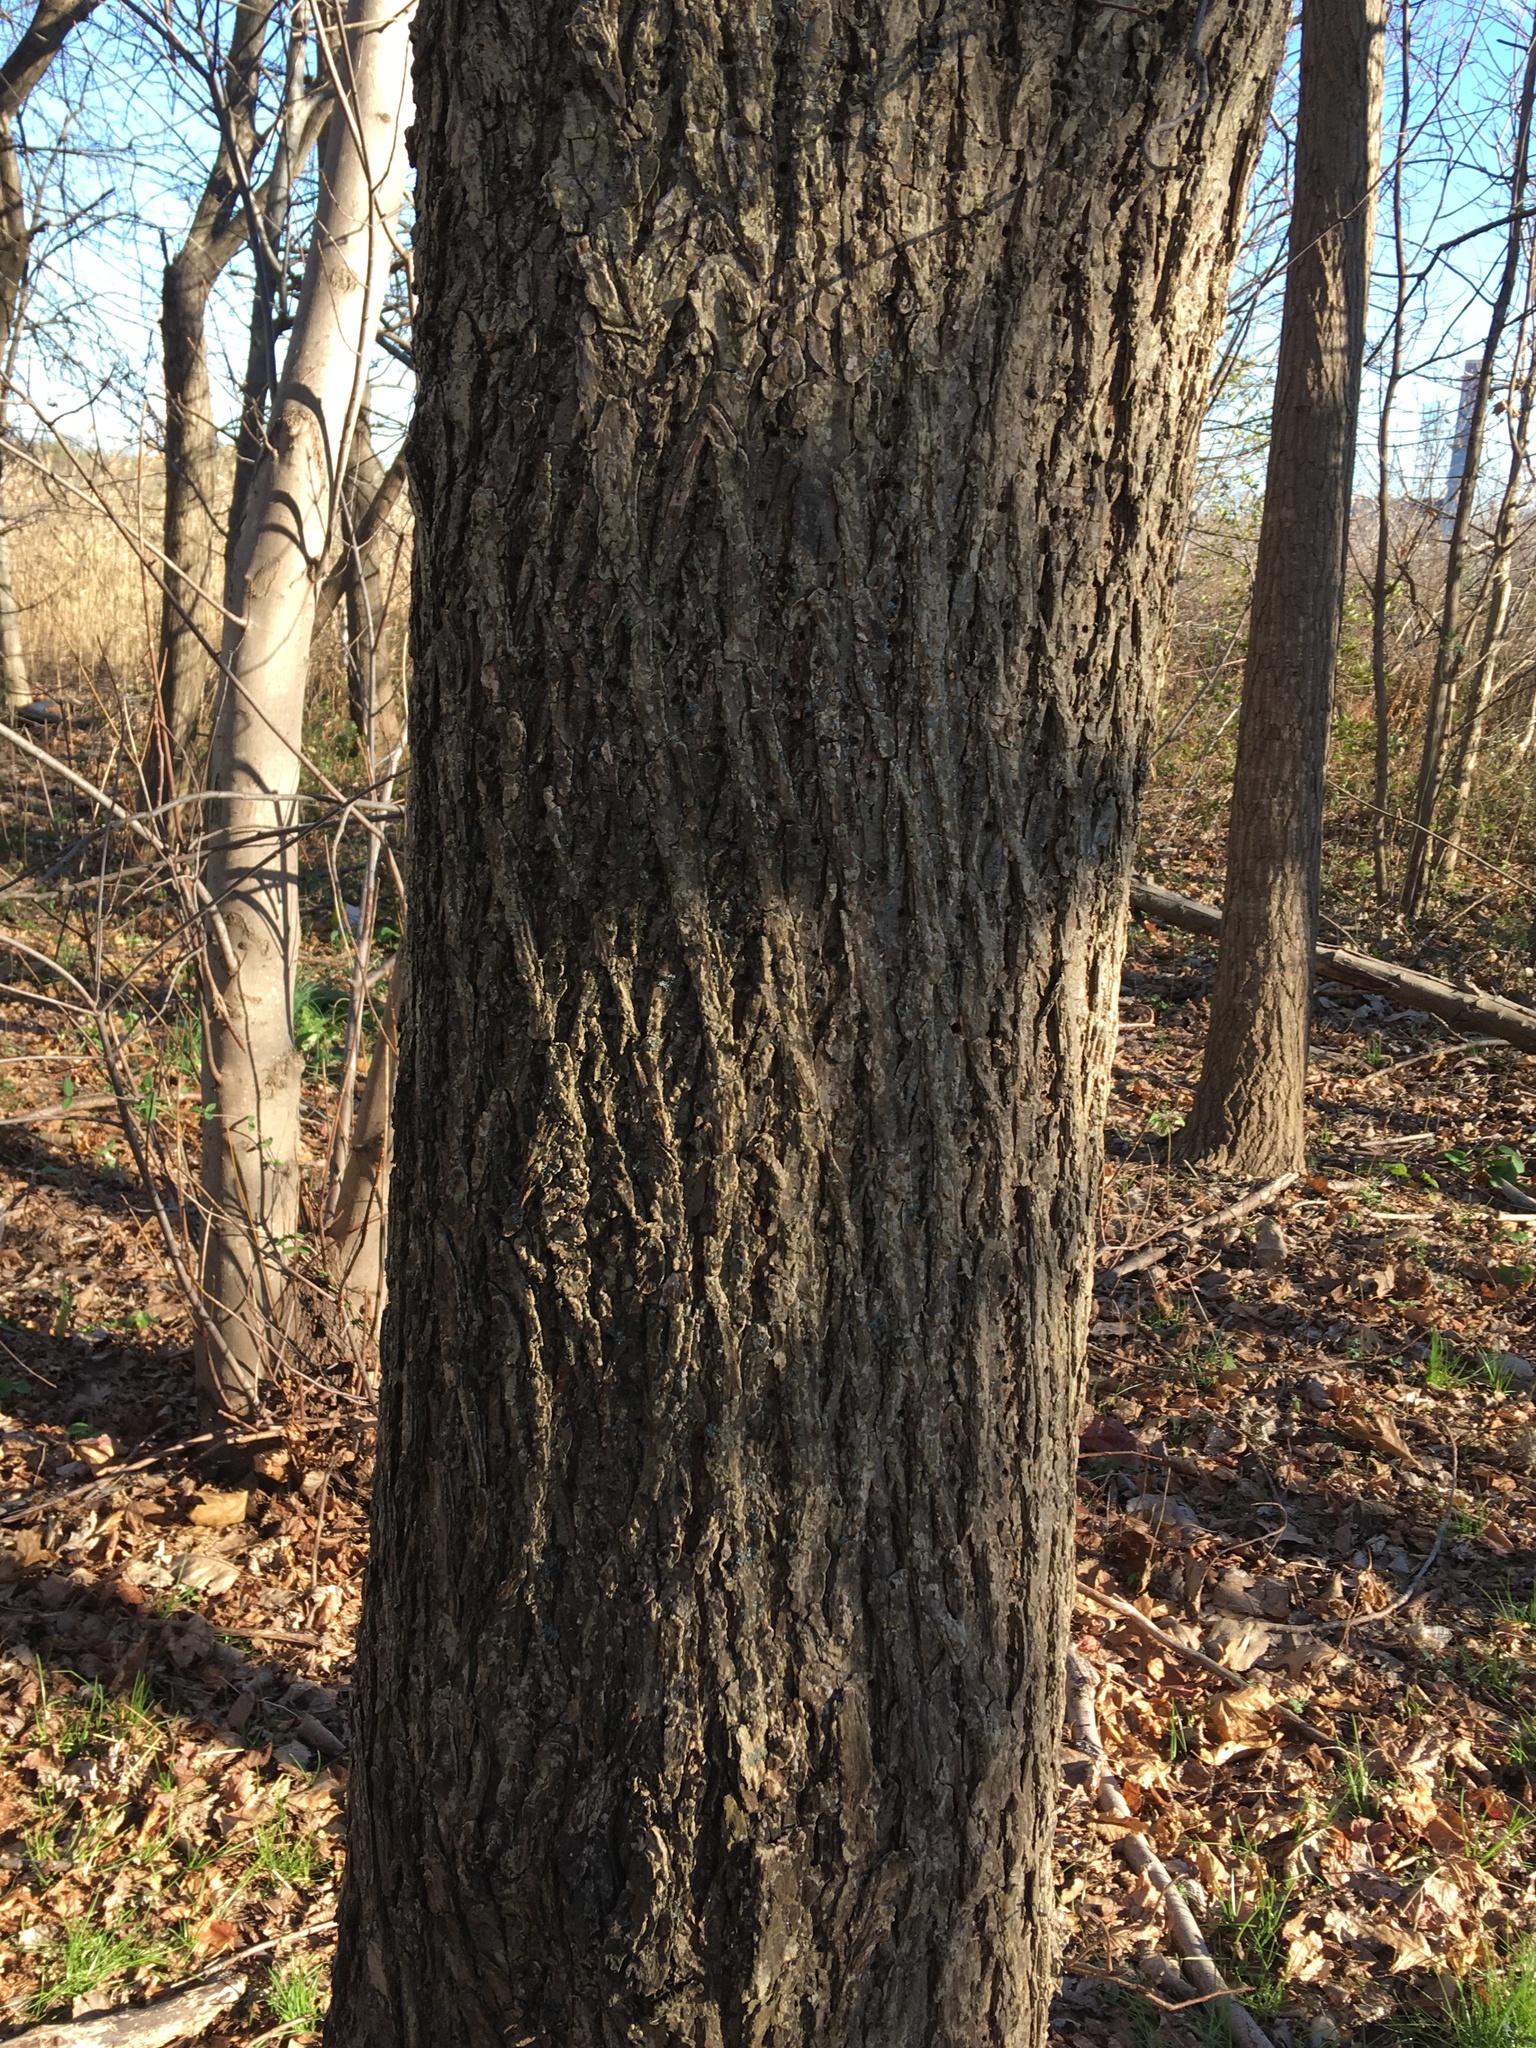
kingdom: Plantae
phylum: Tracheophyta
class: Magnoliopsida
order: Rosales
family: Ulmaceae
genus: Ulmus
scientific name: Ulmus americana
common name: American elm
